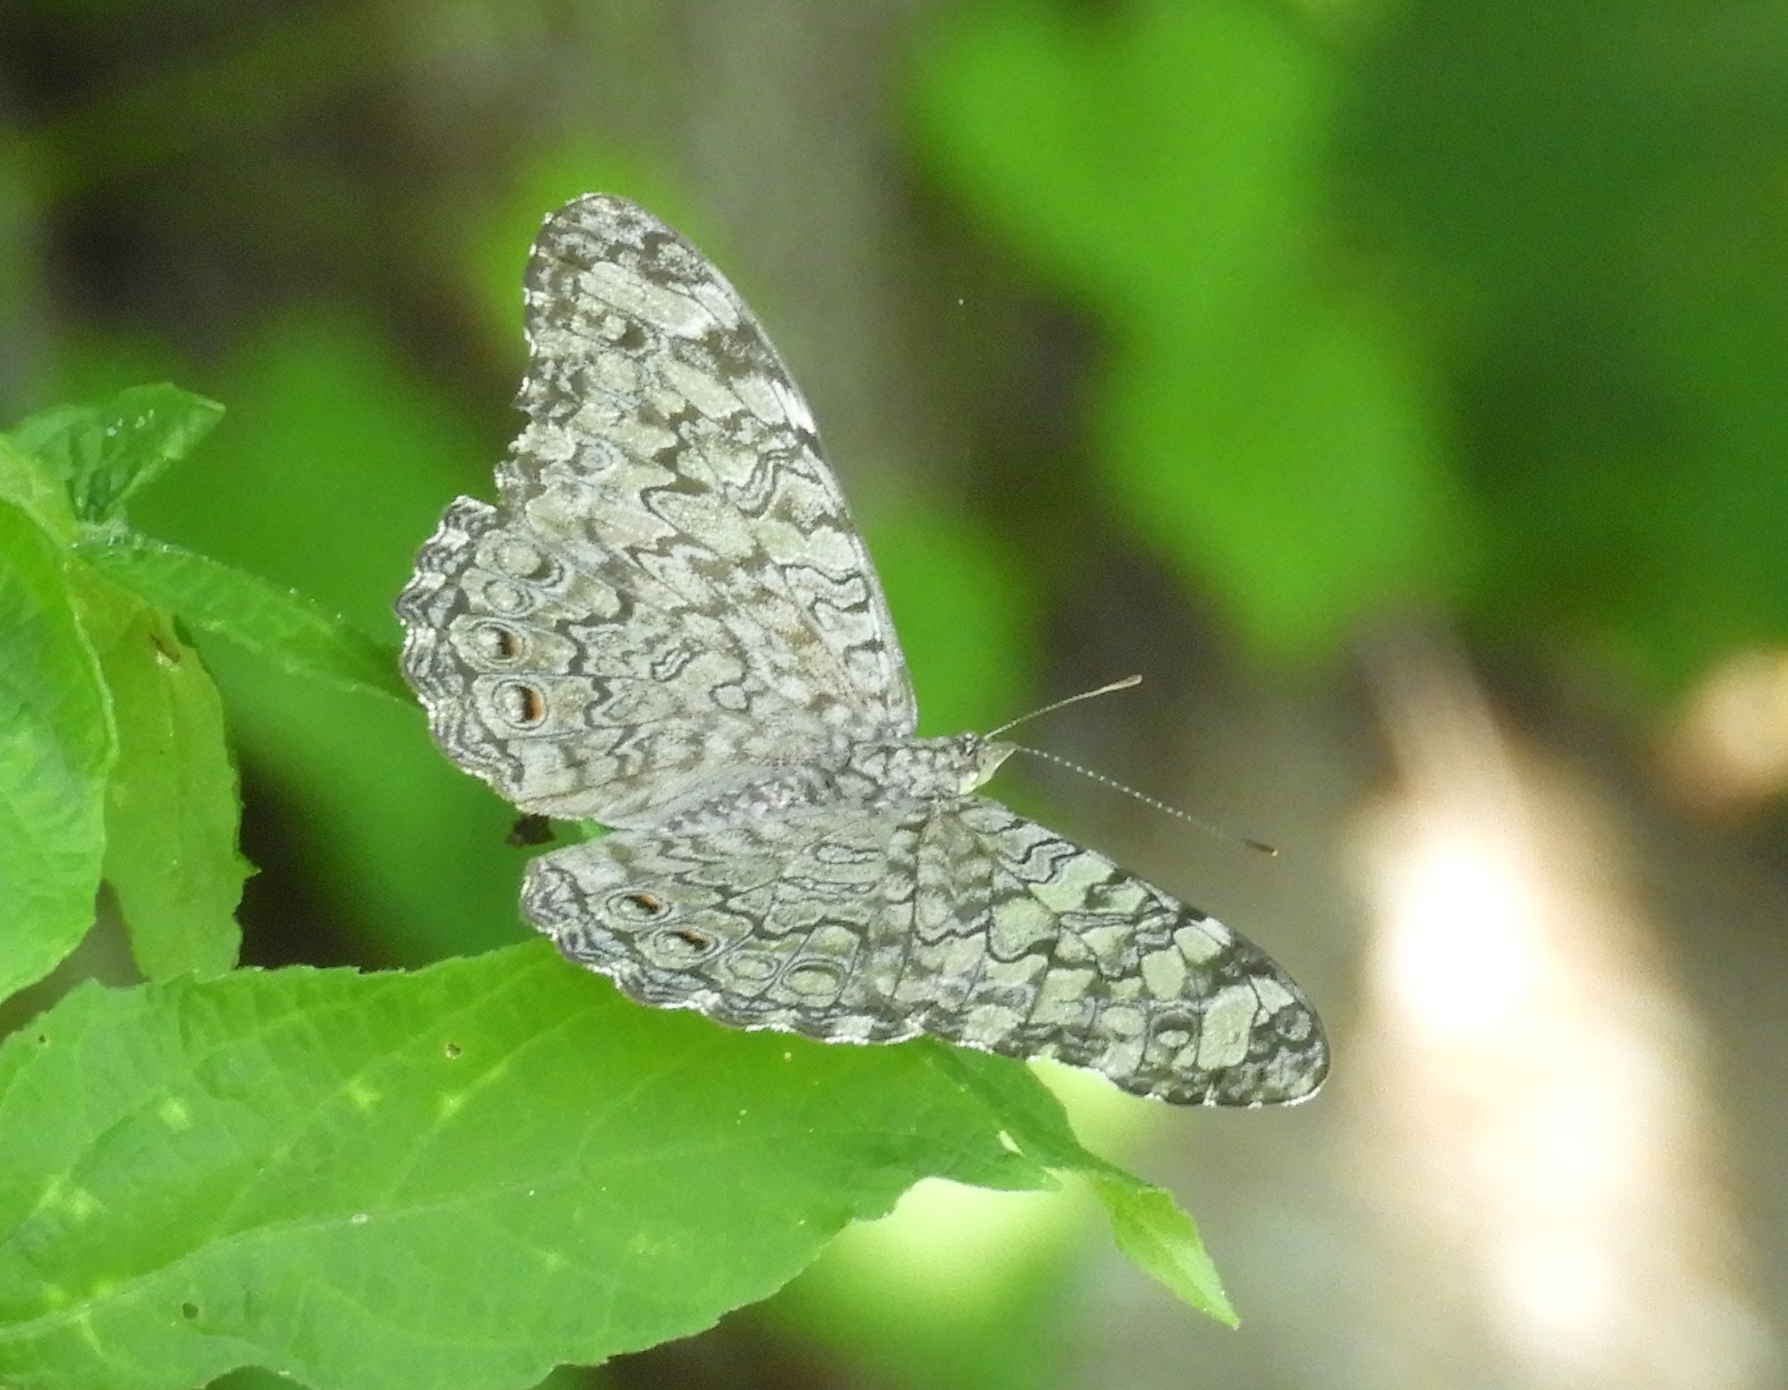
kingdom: Animalia
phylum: Arthropoda
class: Insecta
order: Lepidoptera
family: Nymphalidae
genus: Hamadryas
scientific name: Hamadryas
